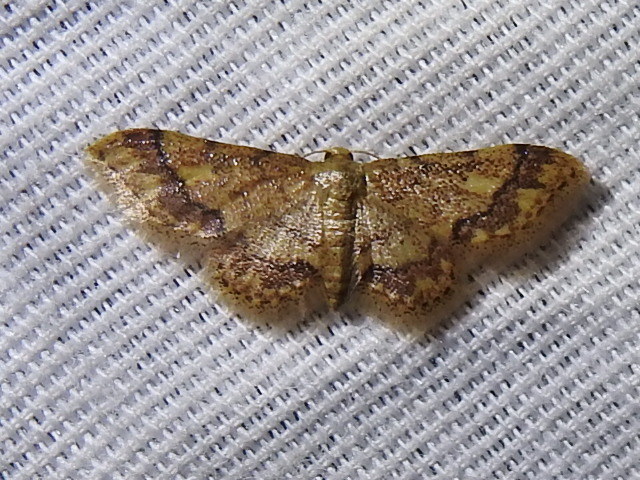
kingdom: Animalia
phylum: Arthropoda
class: Insecta
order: Lepidoptera
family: Geometridae
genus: Idaea
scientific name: Idaea furciferata
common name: Notch-winged wave
